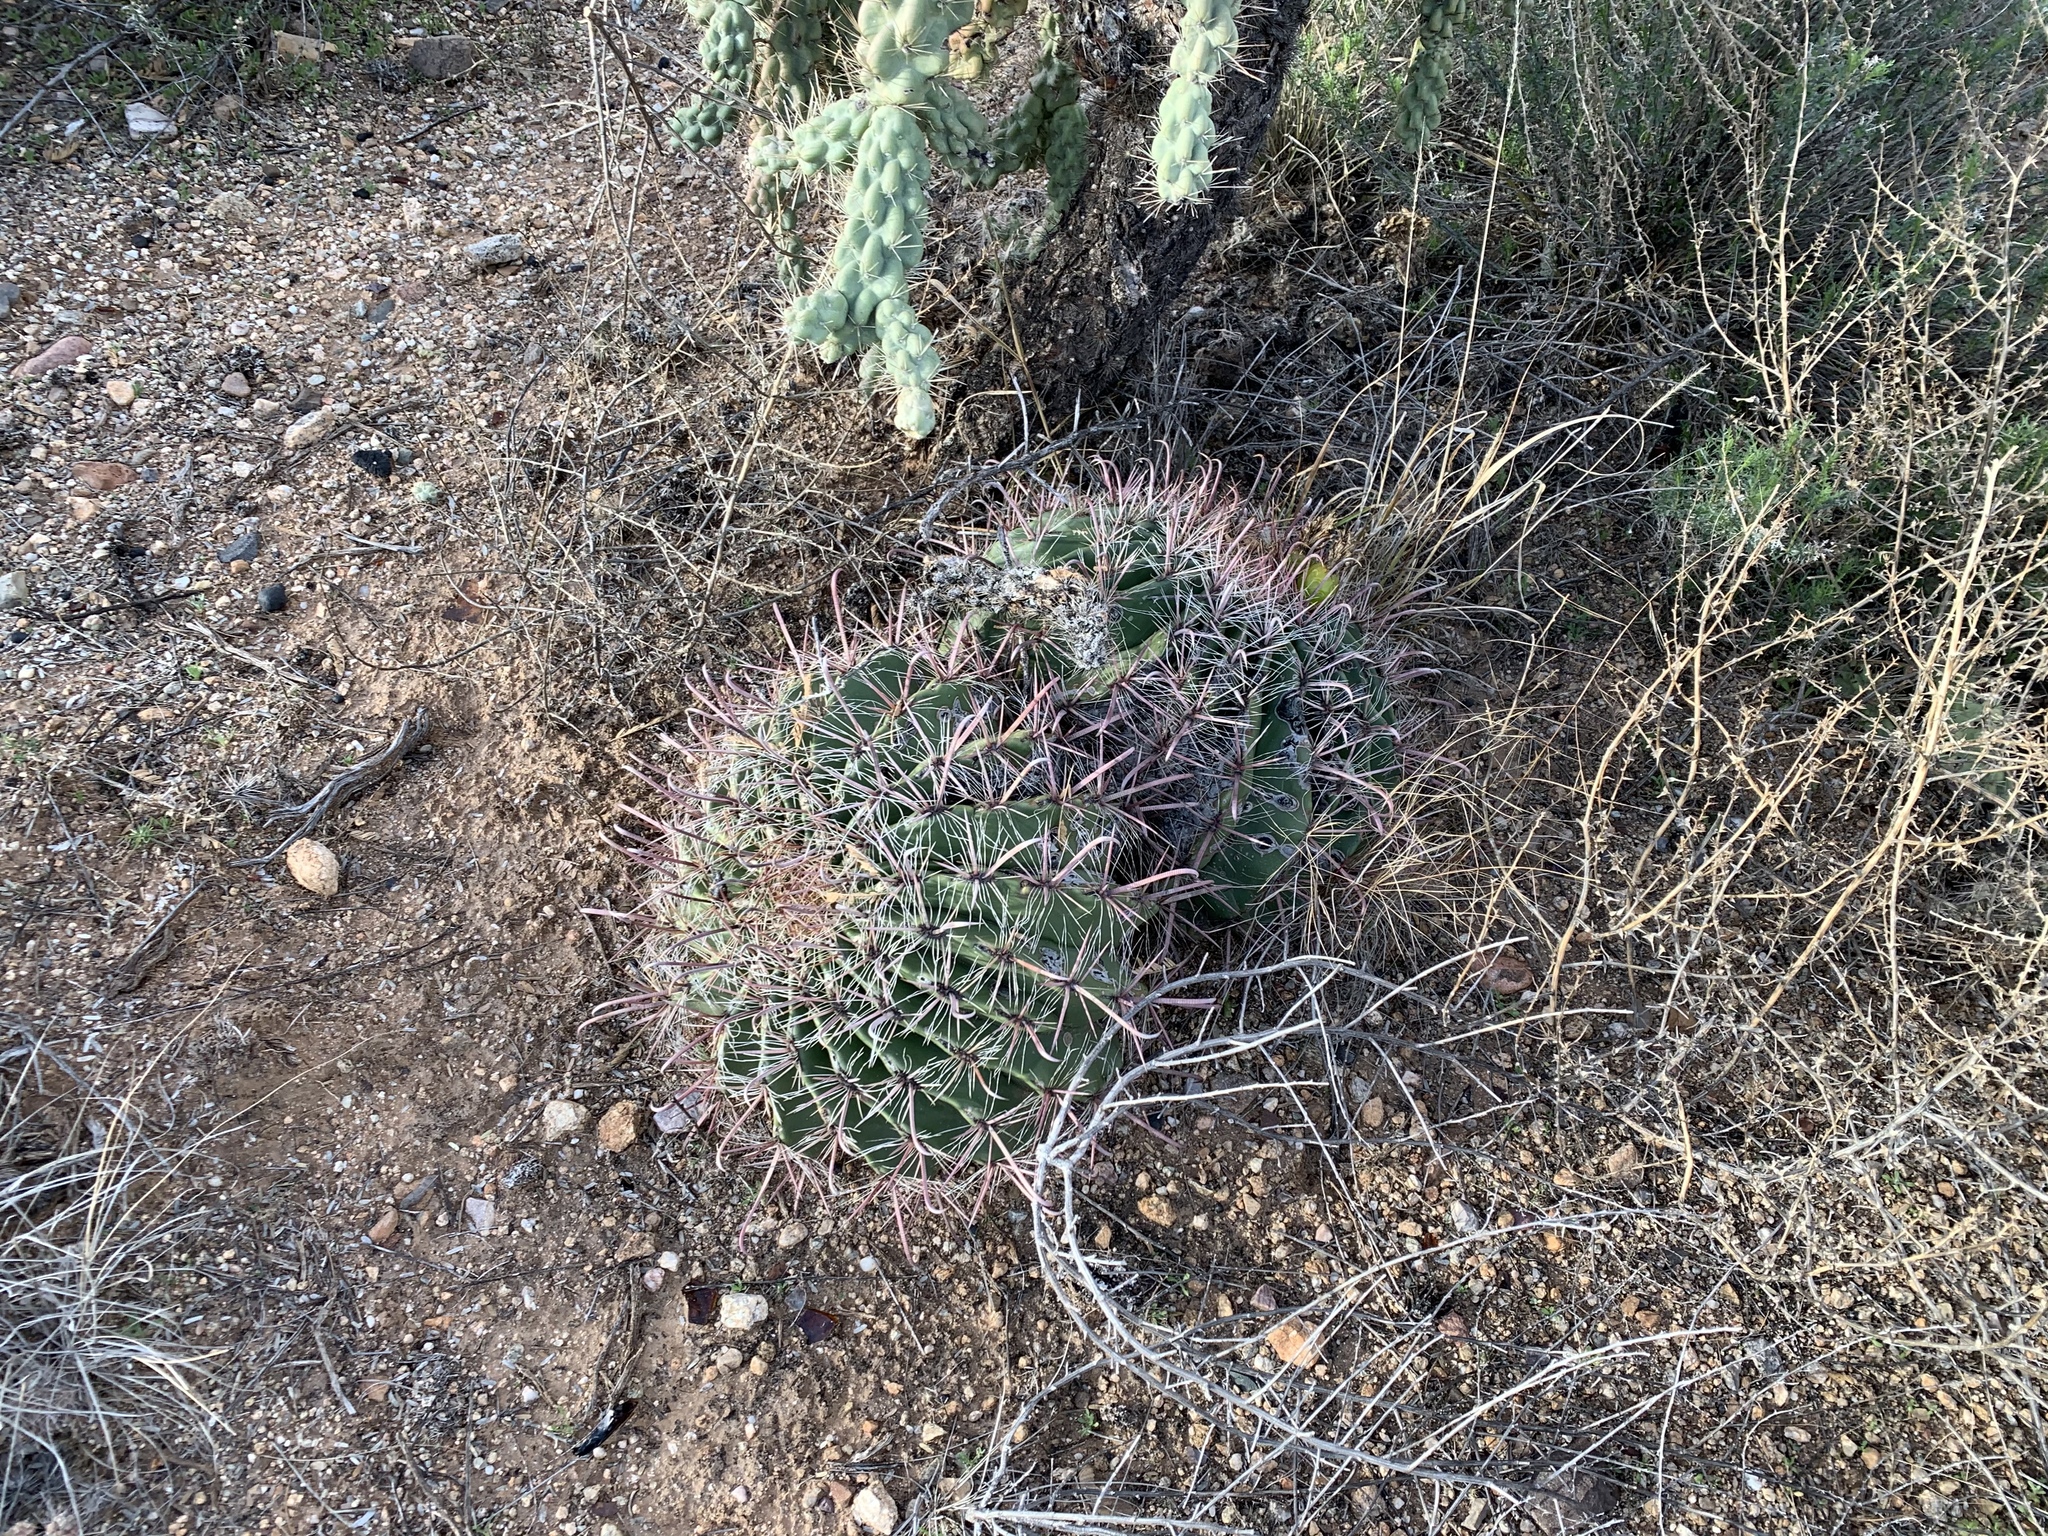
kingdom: Plantae
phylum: Tracheophyta
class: Magnoliopsida
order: Caryophyllales
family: Cactaceae
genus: Ferocactus
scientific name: Ferocactus wislizeni
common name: Candy barrel cactus
